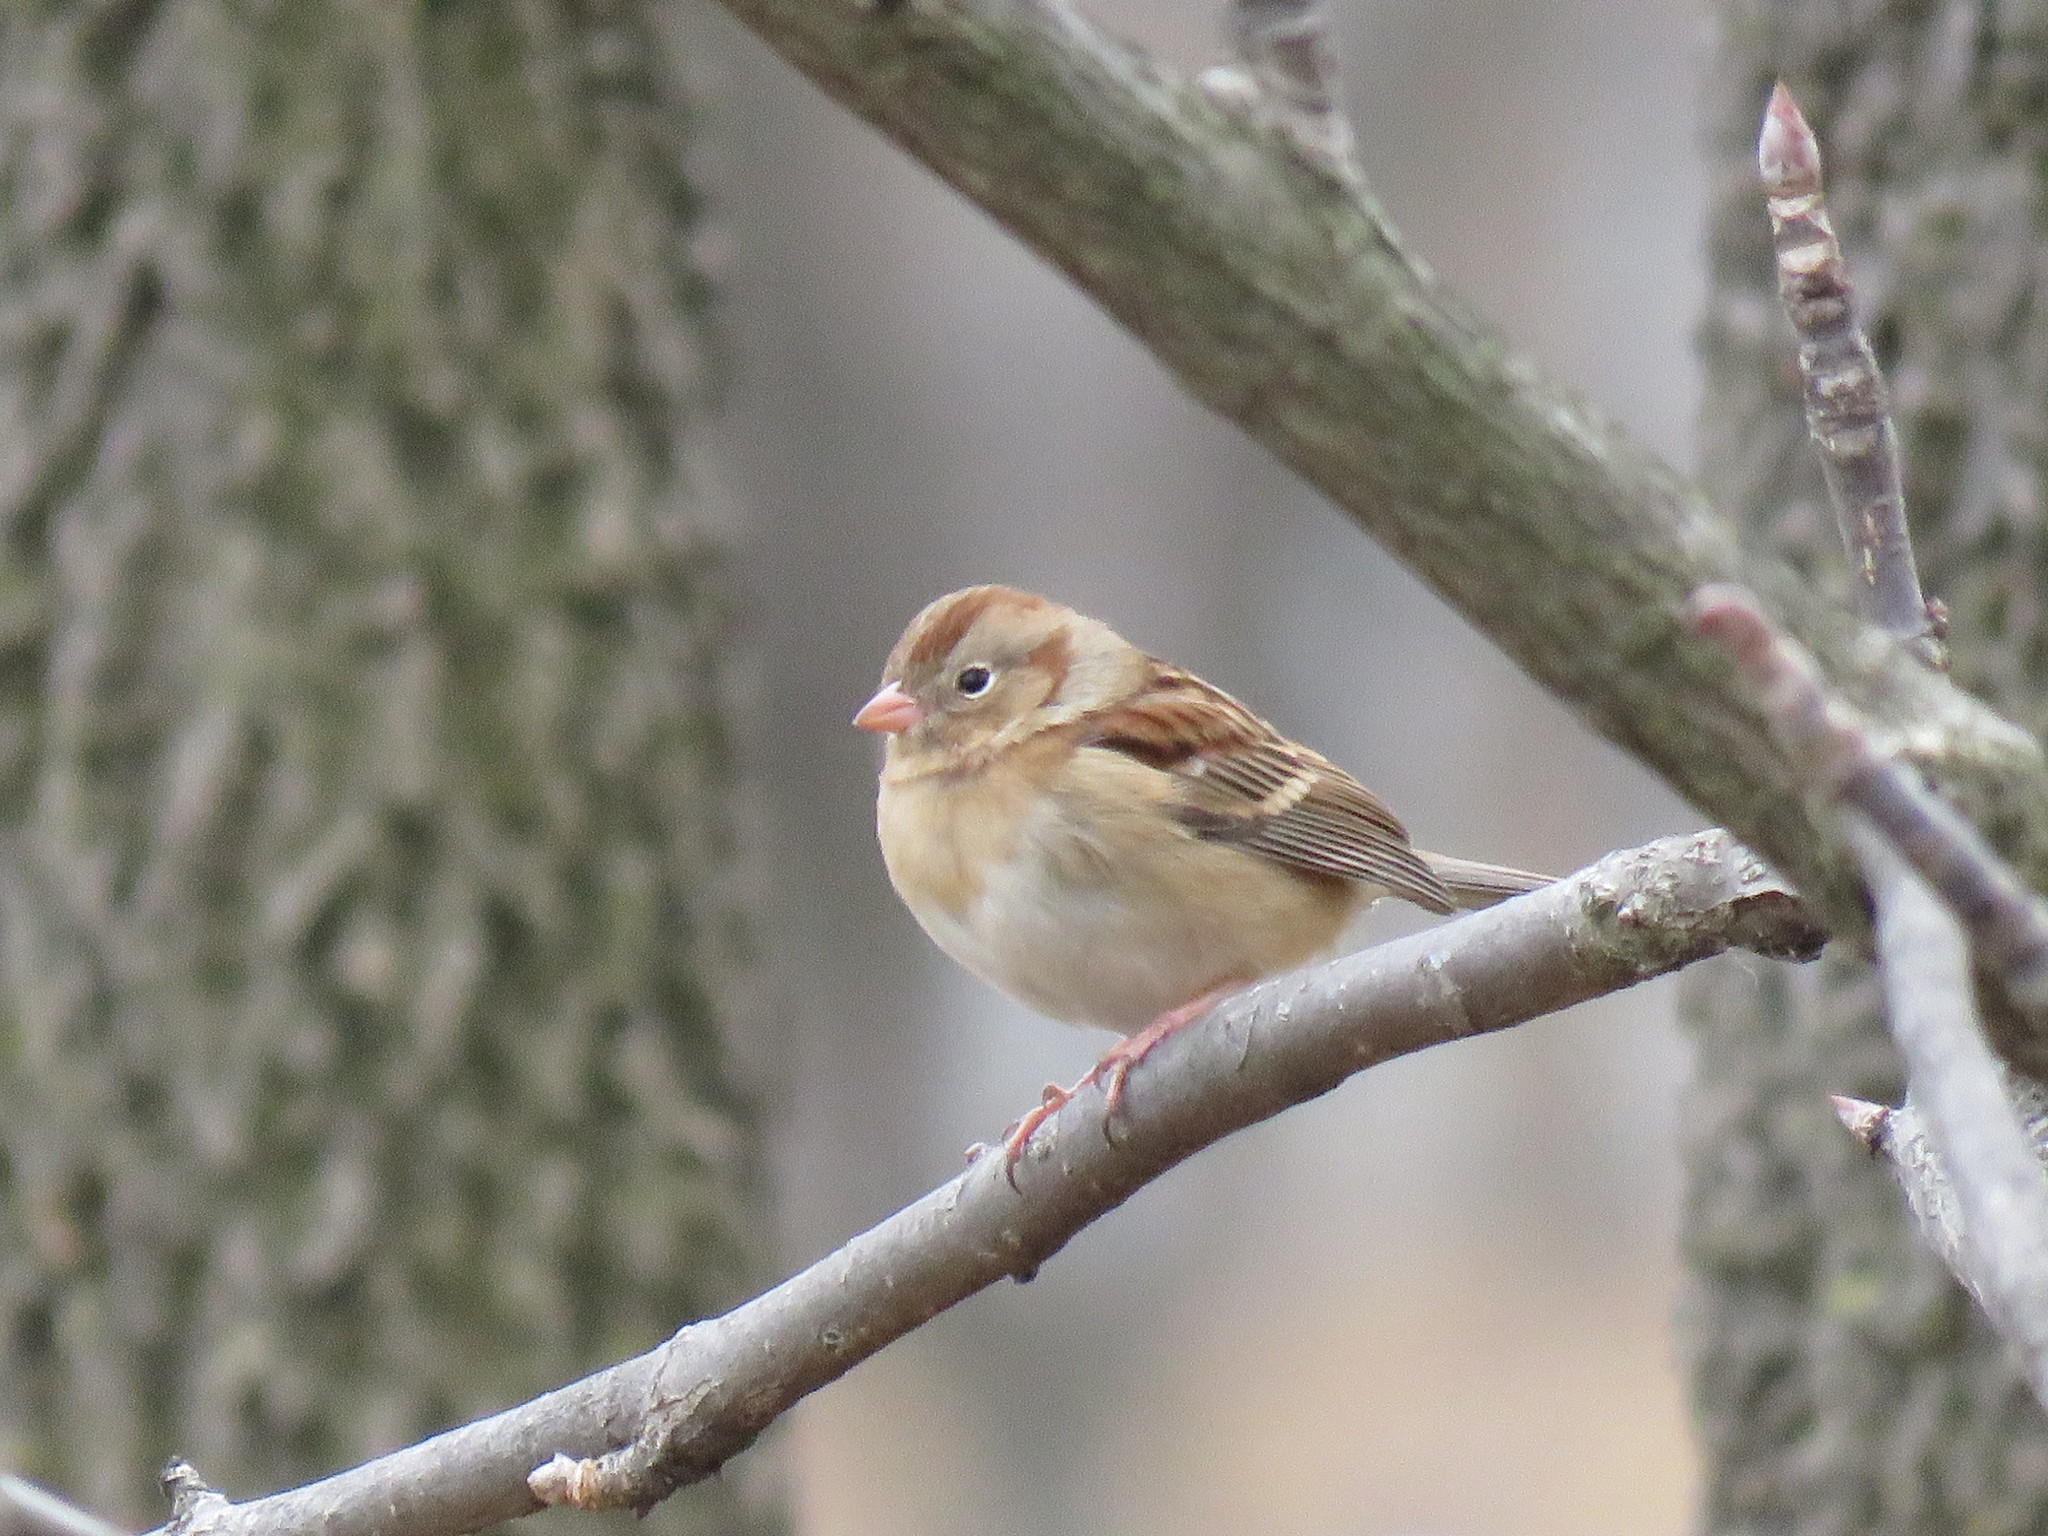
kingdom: Animalia
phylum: Chordata
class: Aves
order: Passeriformes
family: Passerellidae
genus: Spizella
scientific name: Spizella pusilla
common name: Field sparrow
